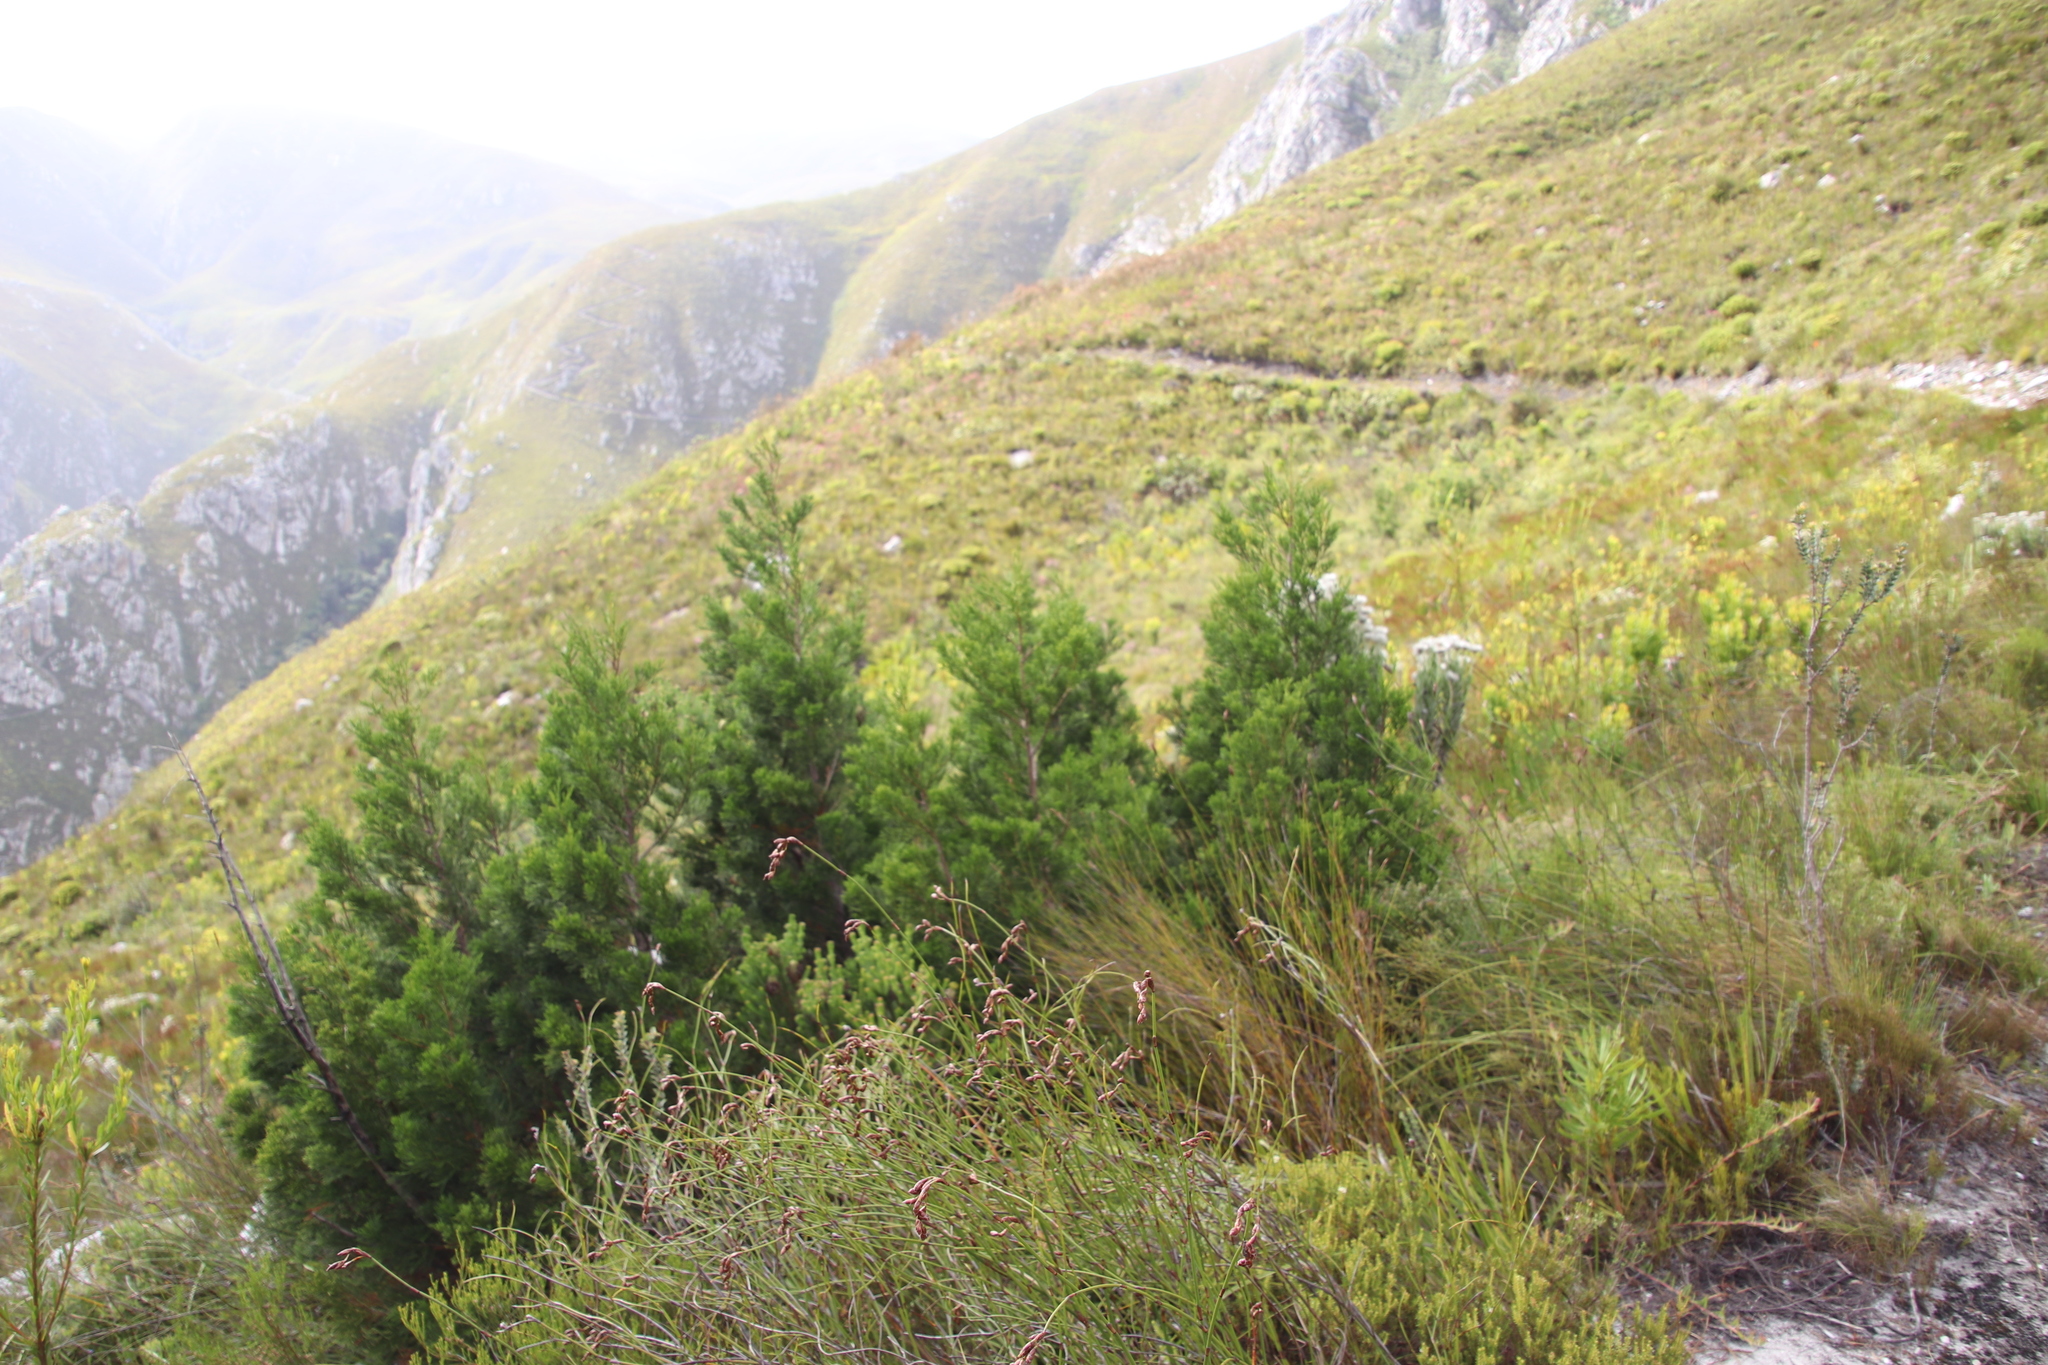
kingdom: Plantae
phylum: Tracheophyta
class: Pinopsida
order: Pinales
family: Cupressaceae
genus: Widdringtonia
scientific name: Widdringtonia nodiflora
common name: Cape cypress
